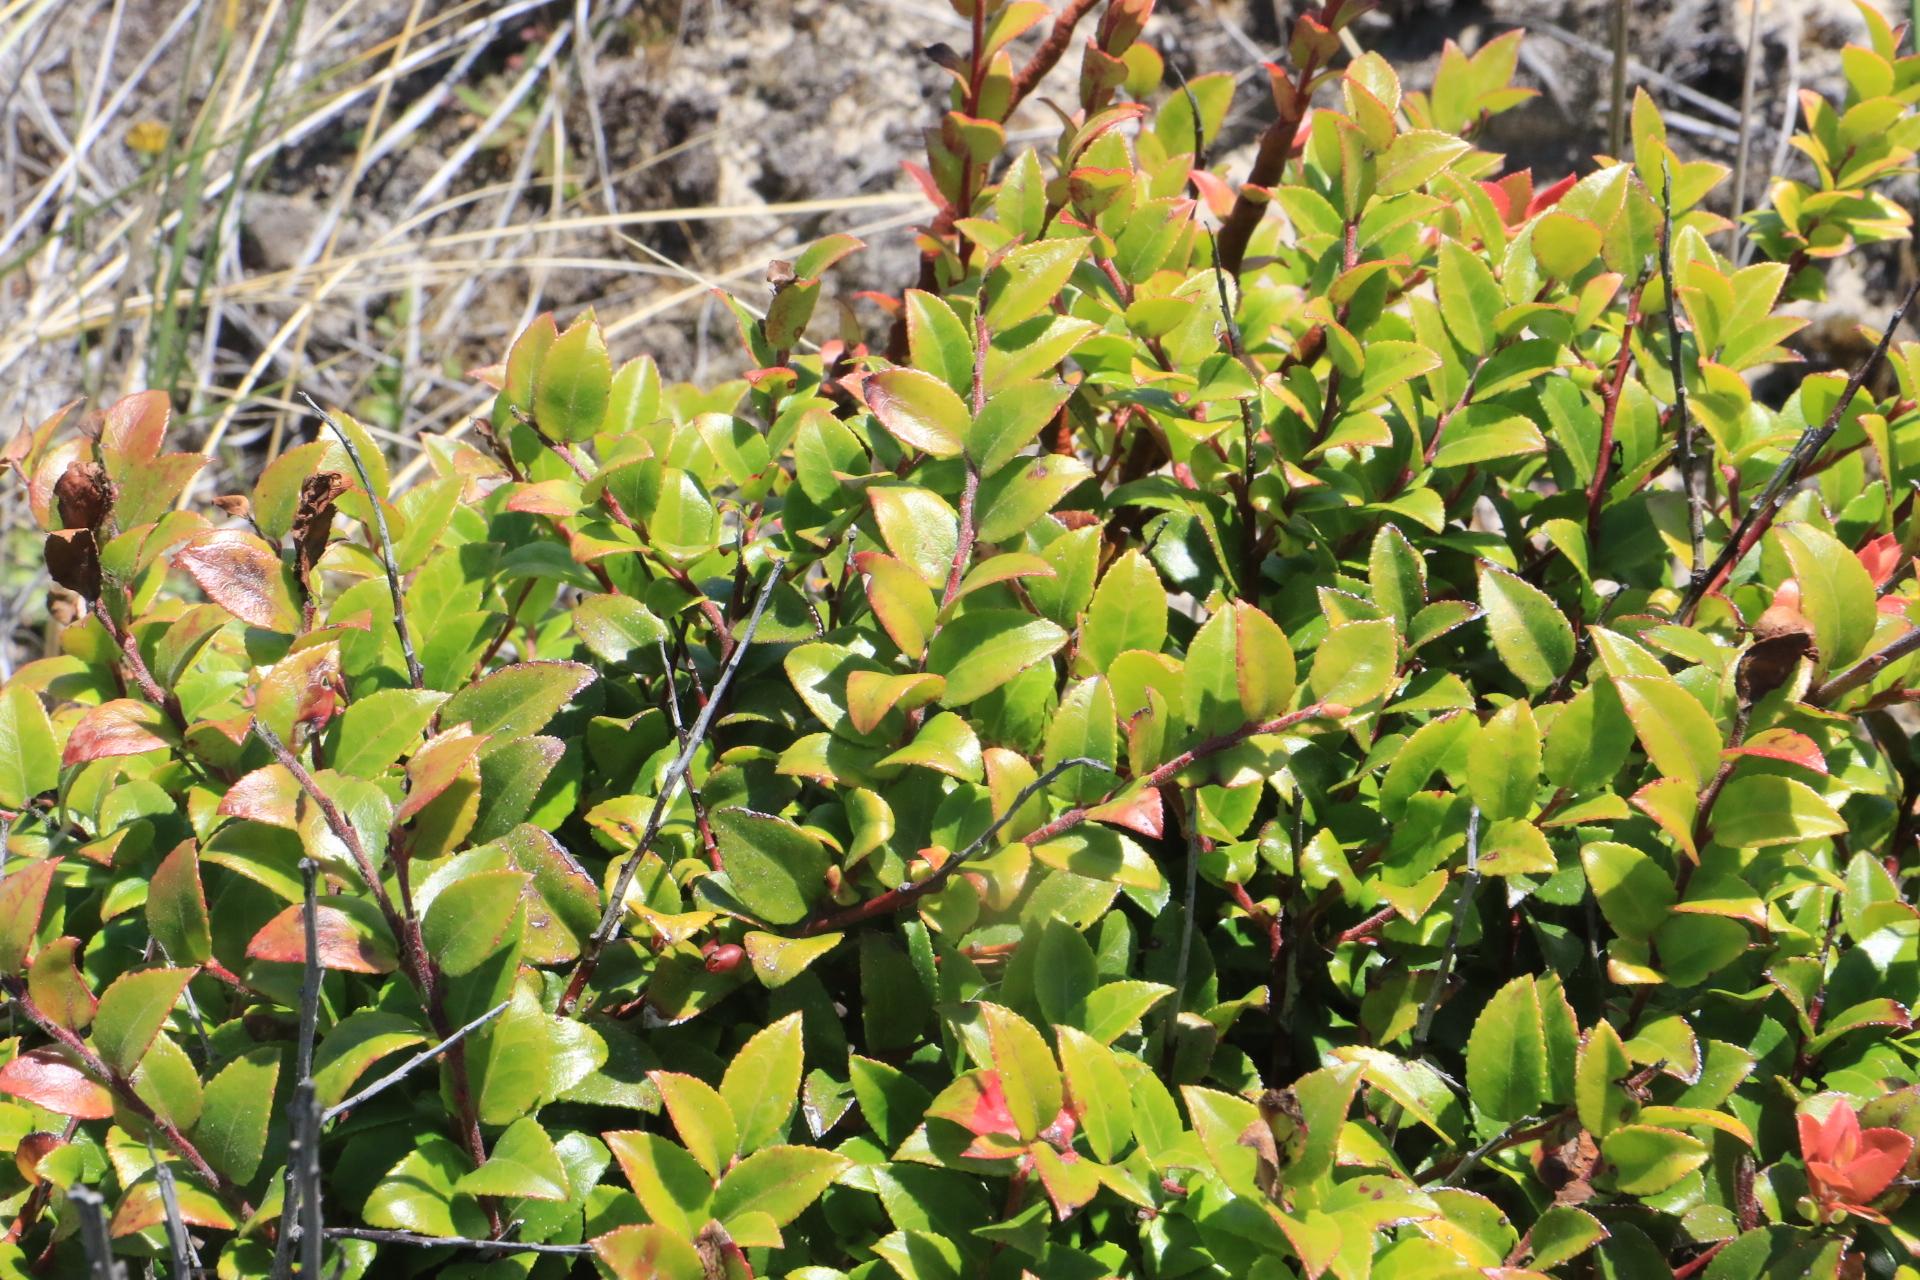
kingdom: Plantae
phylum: Tracheophyta
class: Magnoliopsida
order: Ericales
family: Ericaceae
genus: Vaccinium
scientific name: Vaccinium ovatum
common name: California-huckleberry
